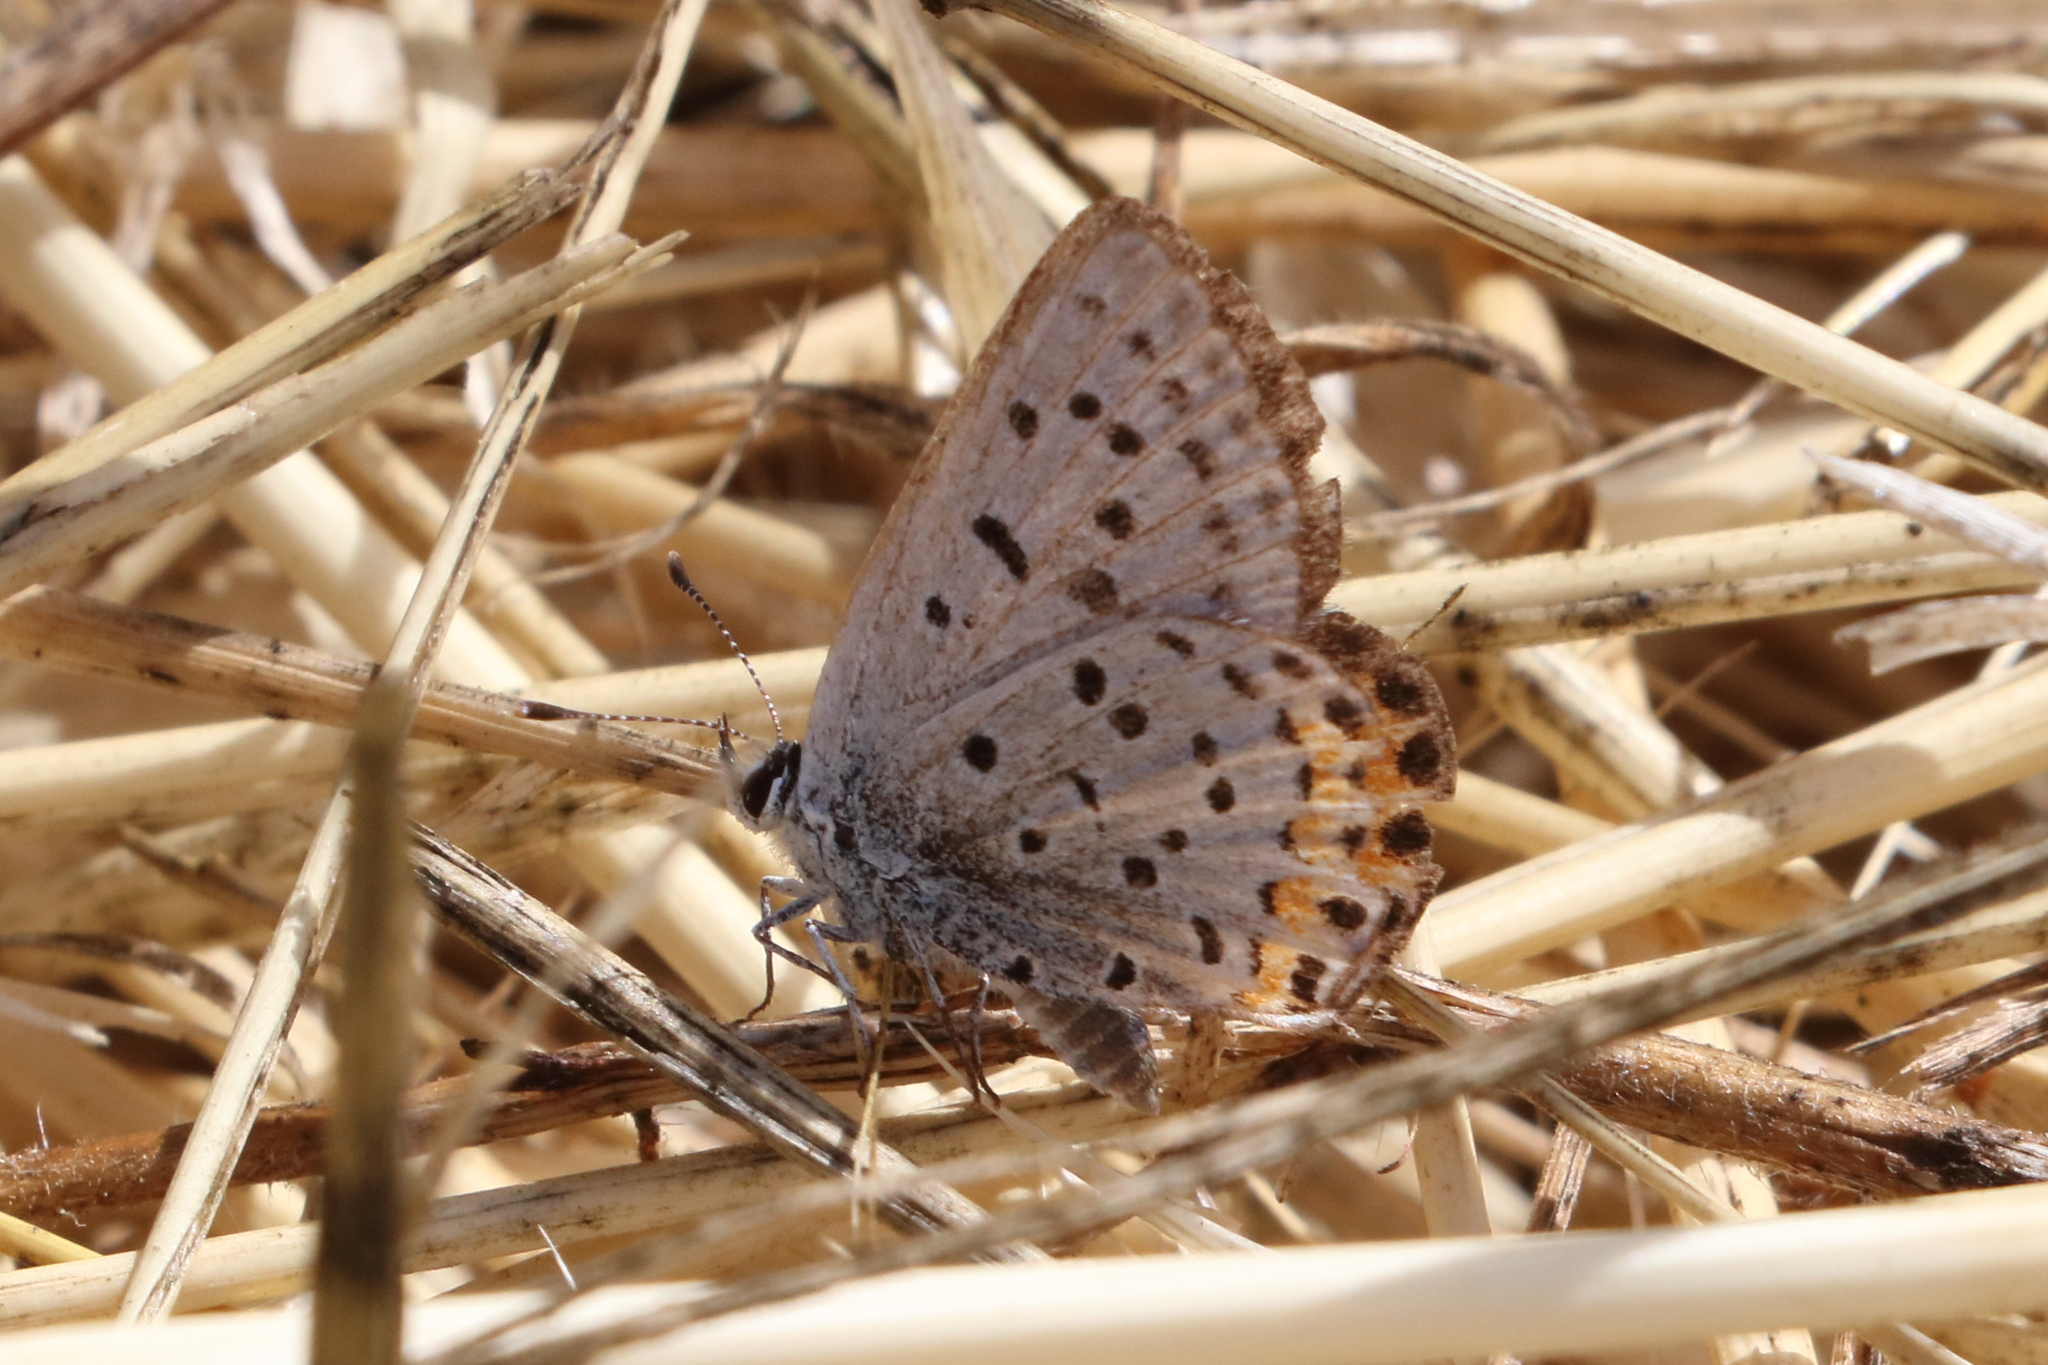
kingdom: Animalia
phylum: Arthropoda
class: Insecta
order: Lepidoptera
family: Lycaenidae
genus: Icaricia
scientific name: Icaricia acmon
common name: Acmon blue
